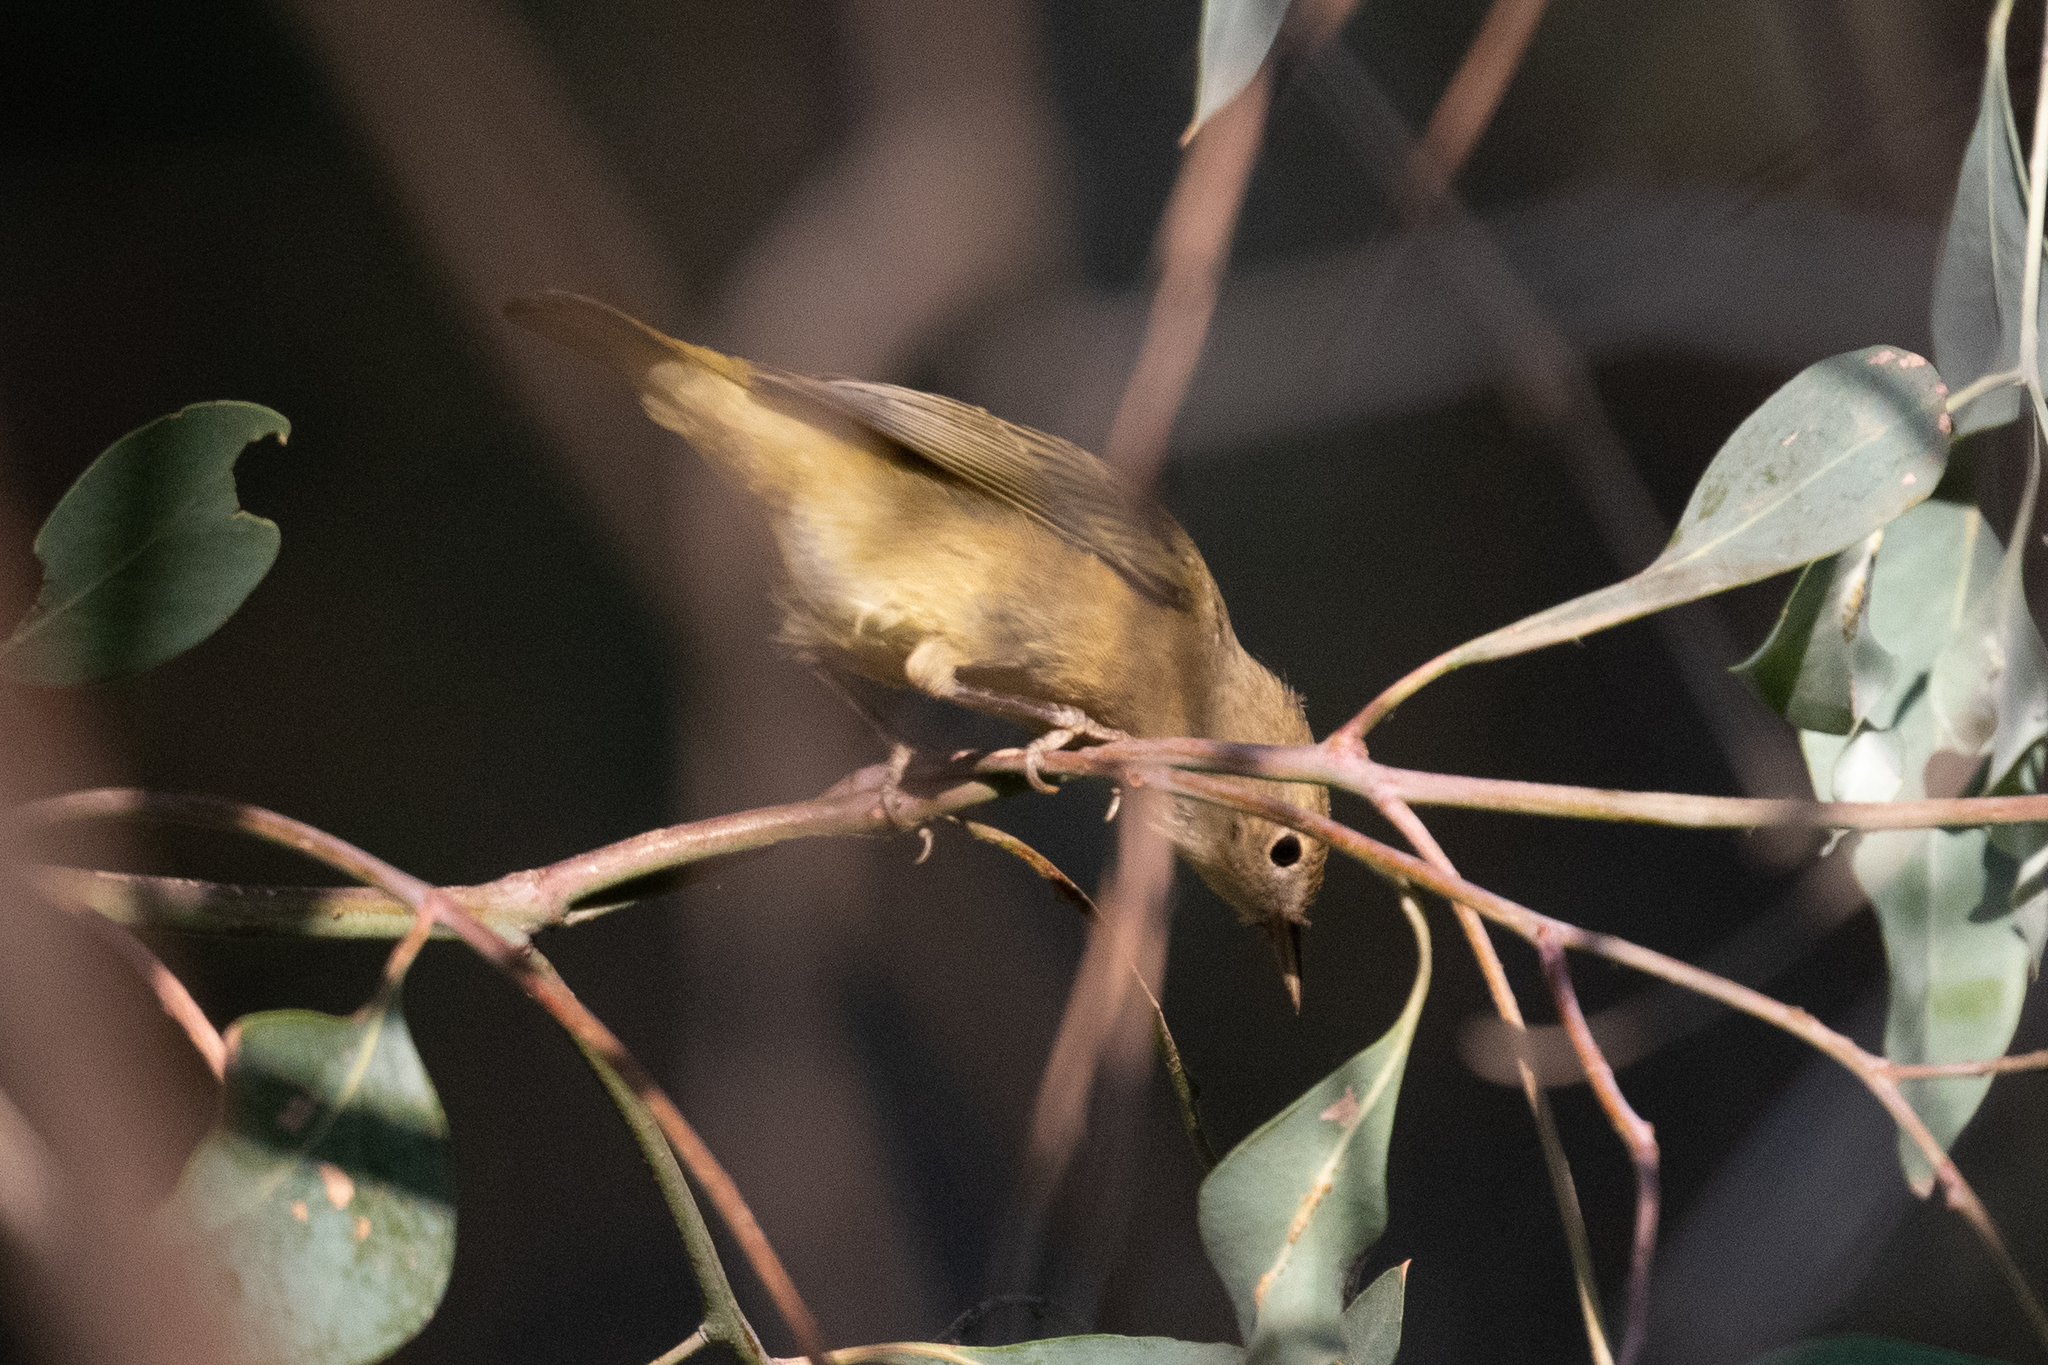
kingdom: Animalia
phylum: Chordata
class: Aves
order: Passeriformes
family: Parulidae
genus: Setophaga
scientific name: Setophaga petechia
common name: Yellow warbler
